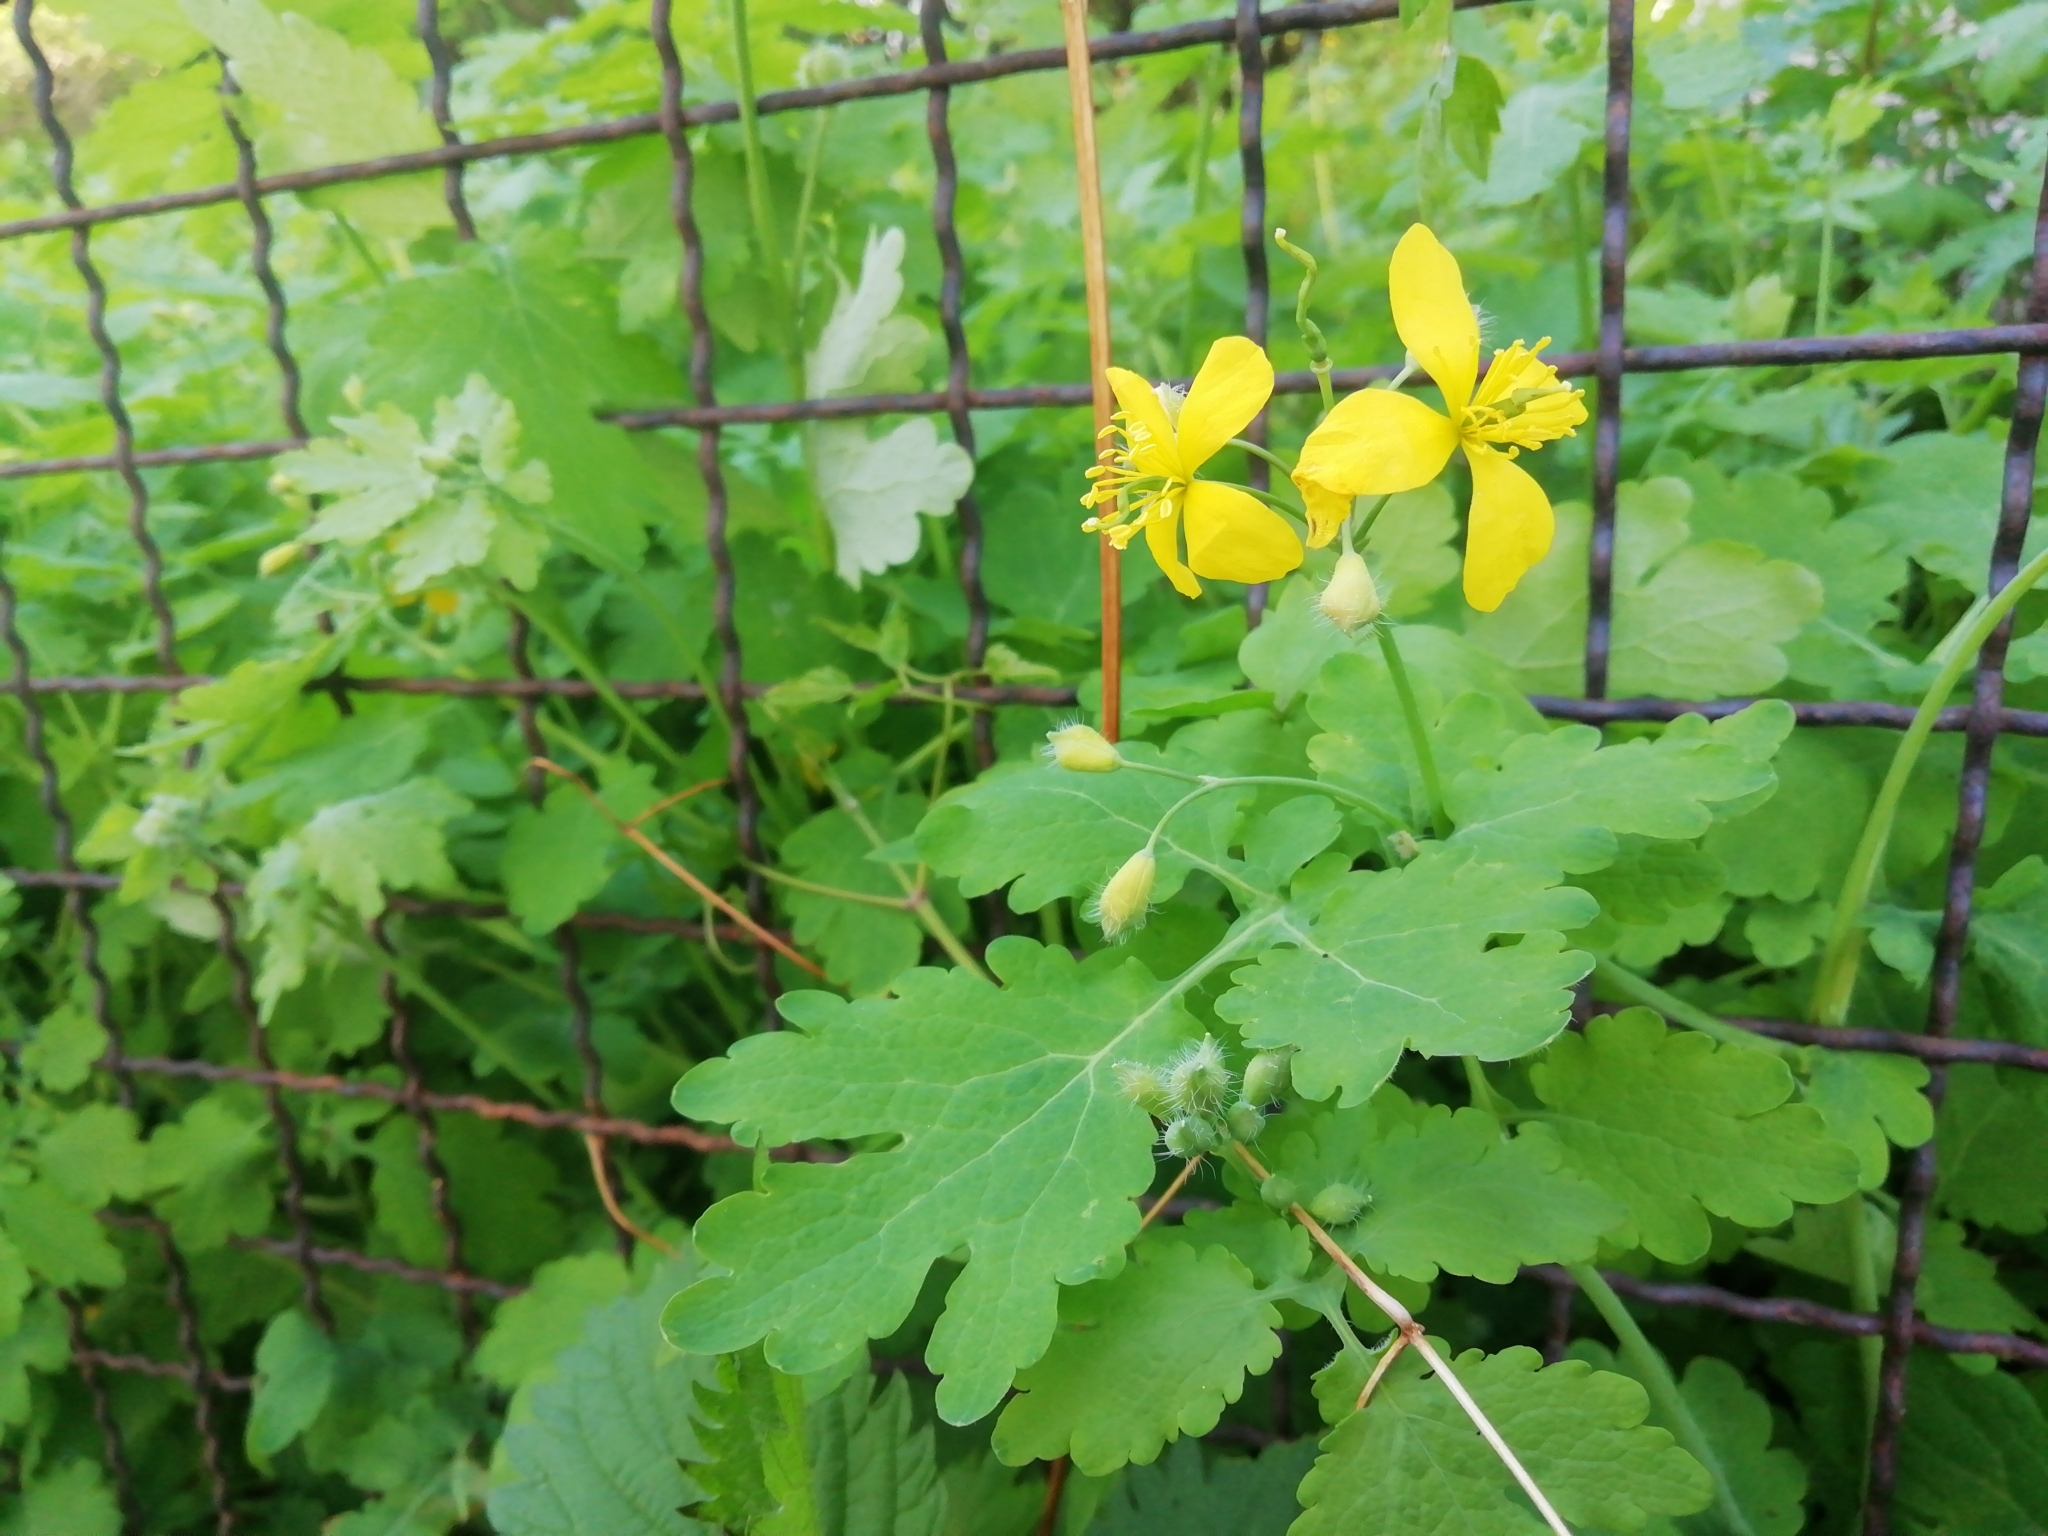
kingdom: Plantae
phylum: Tracheophyta
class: Magnoliopsida
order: Ranunculales
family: Papaveraceae
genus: Chelidonium
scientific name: Chelidonium majus
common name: Greater celandine
